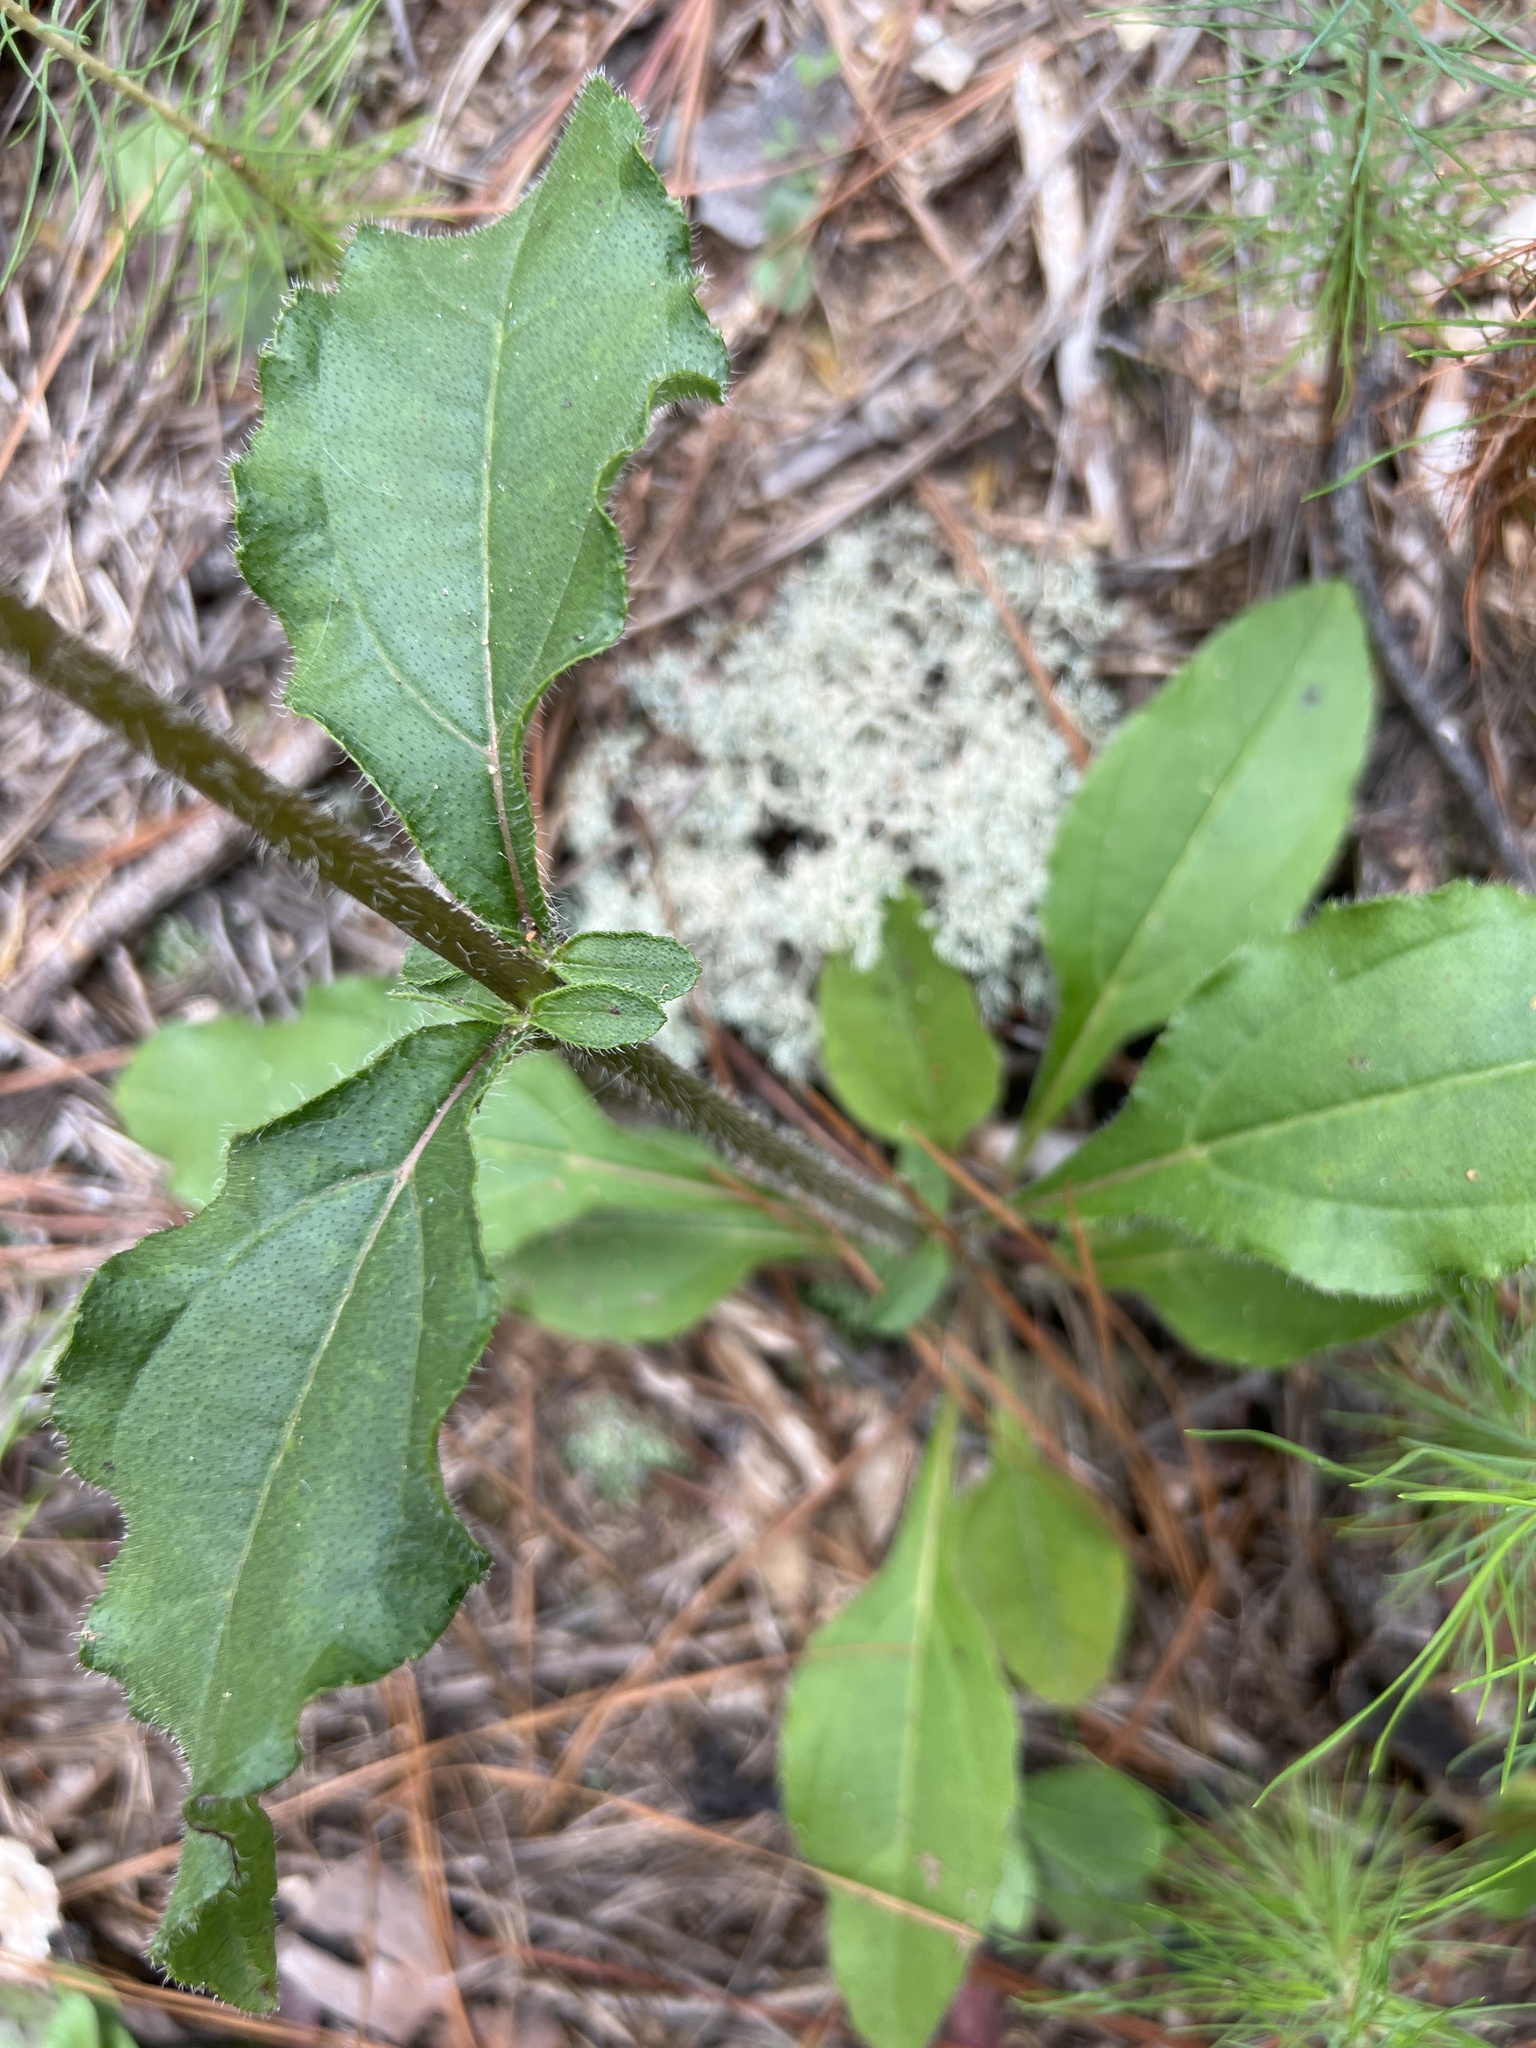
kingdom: Plantae
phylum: Tracheophyta
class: Magnoliopsida
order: Asterales
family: Asteraceae
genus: Helianthus
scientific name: Helianthus atrorubens
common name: Dark-eyed sunflower
